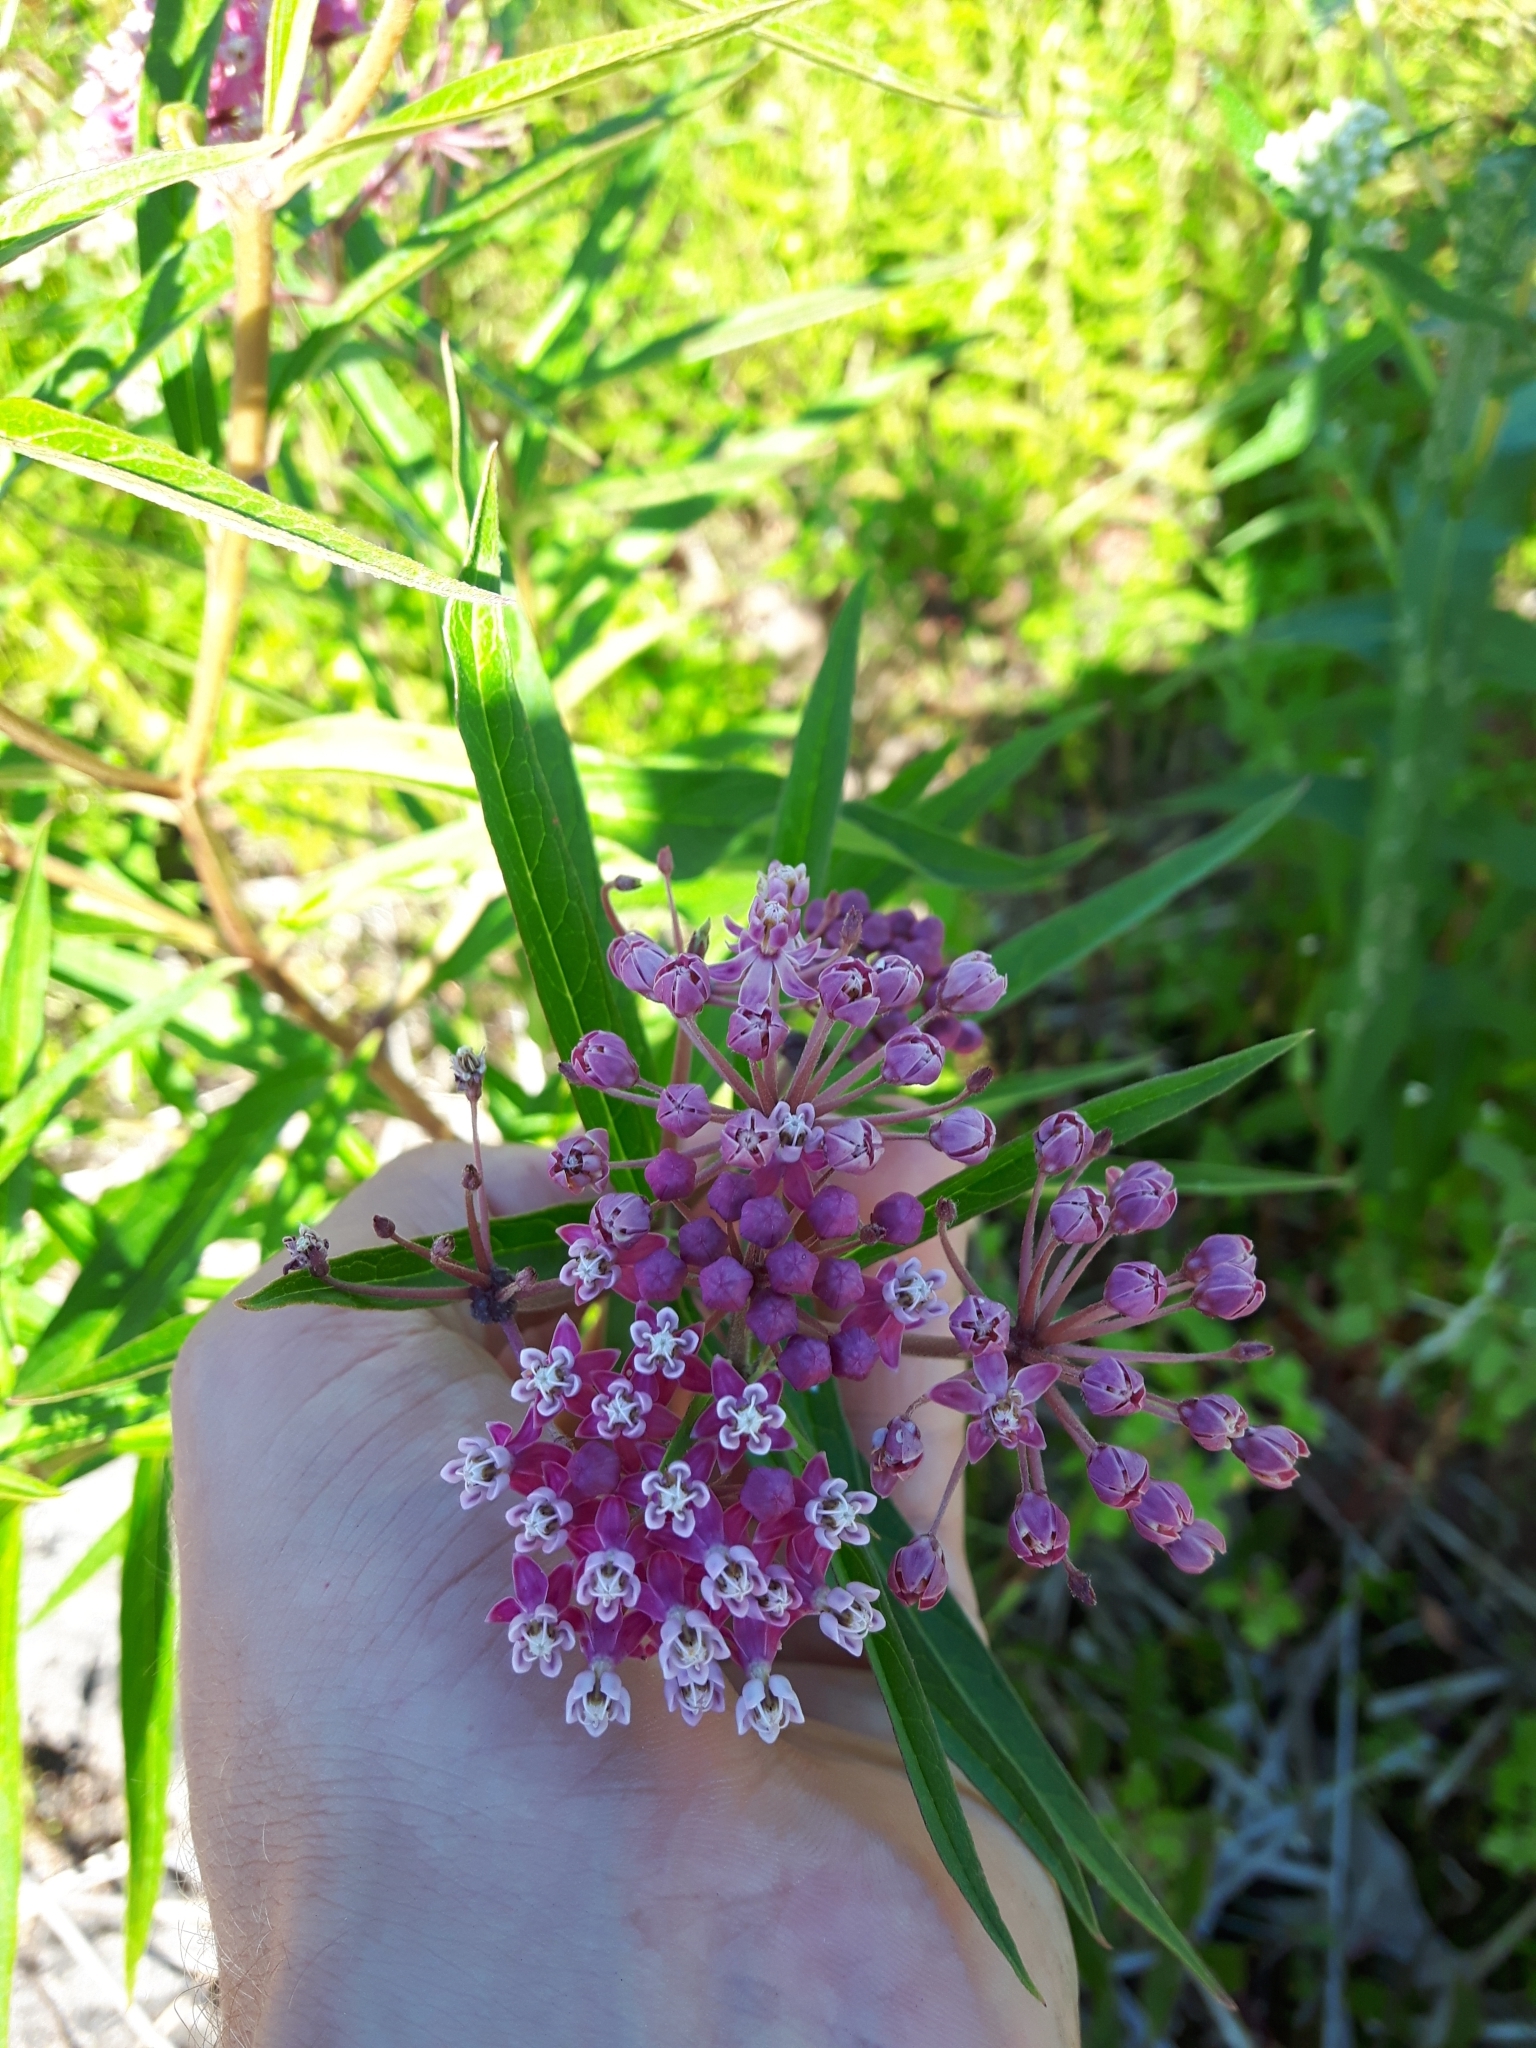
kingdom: Plantae
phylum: Tracheophyta
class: Magnoliopsida
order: Gentianales
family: Apocynaceae
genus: Asclepias
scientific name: Asclepias incarnata
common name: Swamp milkweed
